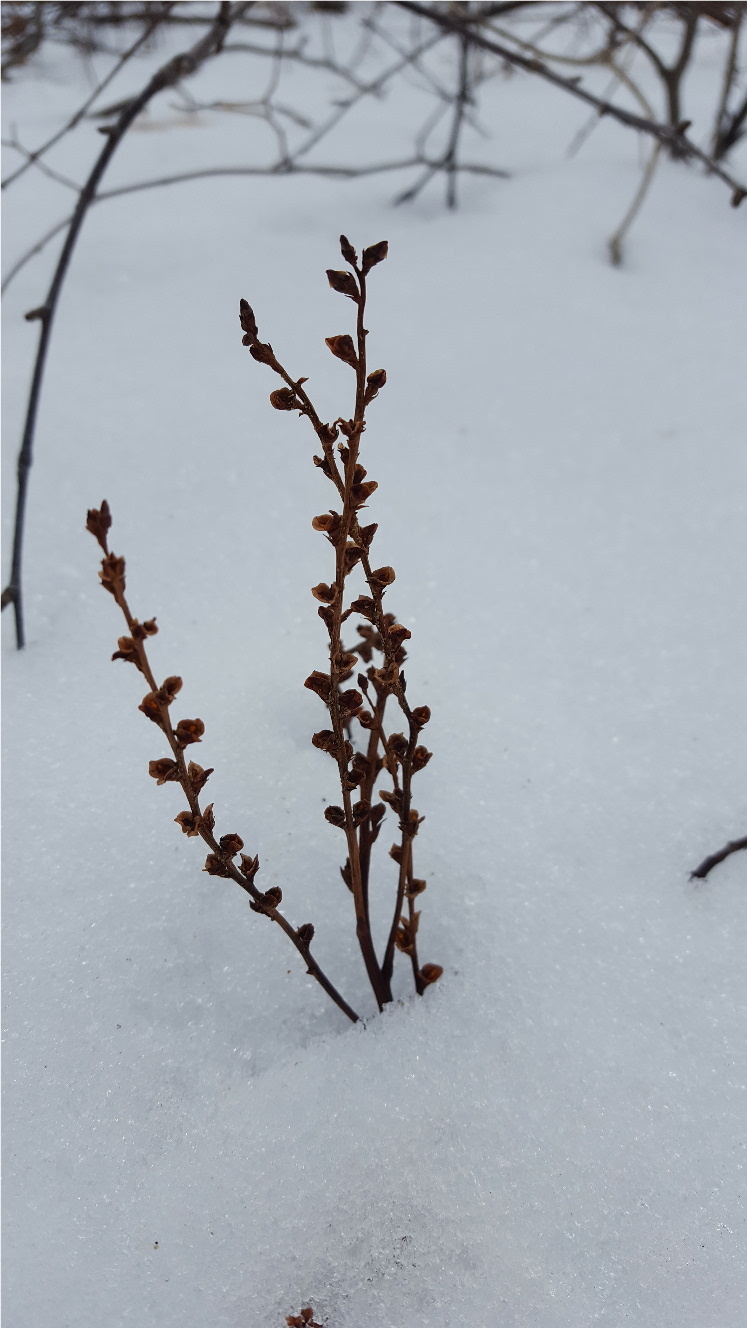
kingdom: Plantae
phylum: Tracheophyta
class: Magnoliopsida
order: Lamiales
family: Orobanchaceae
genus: Epifagus
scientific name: Epifagus virginiana
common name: Beechdrops
